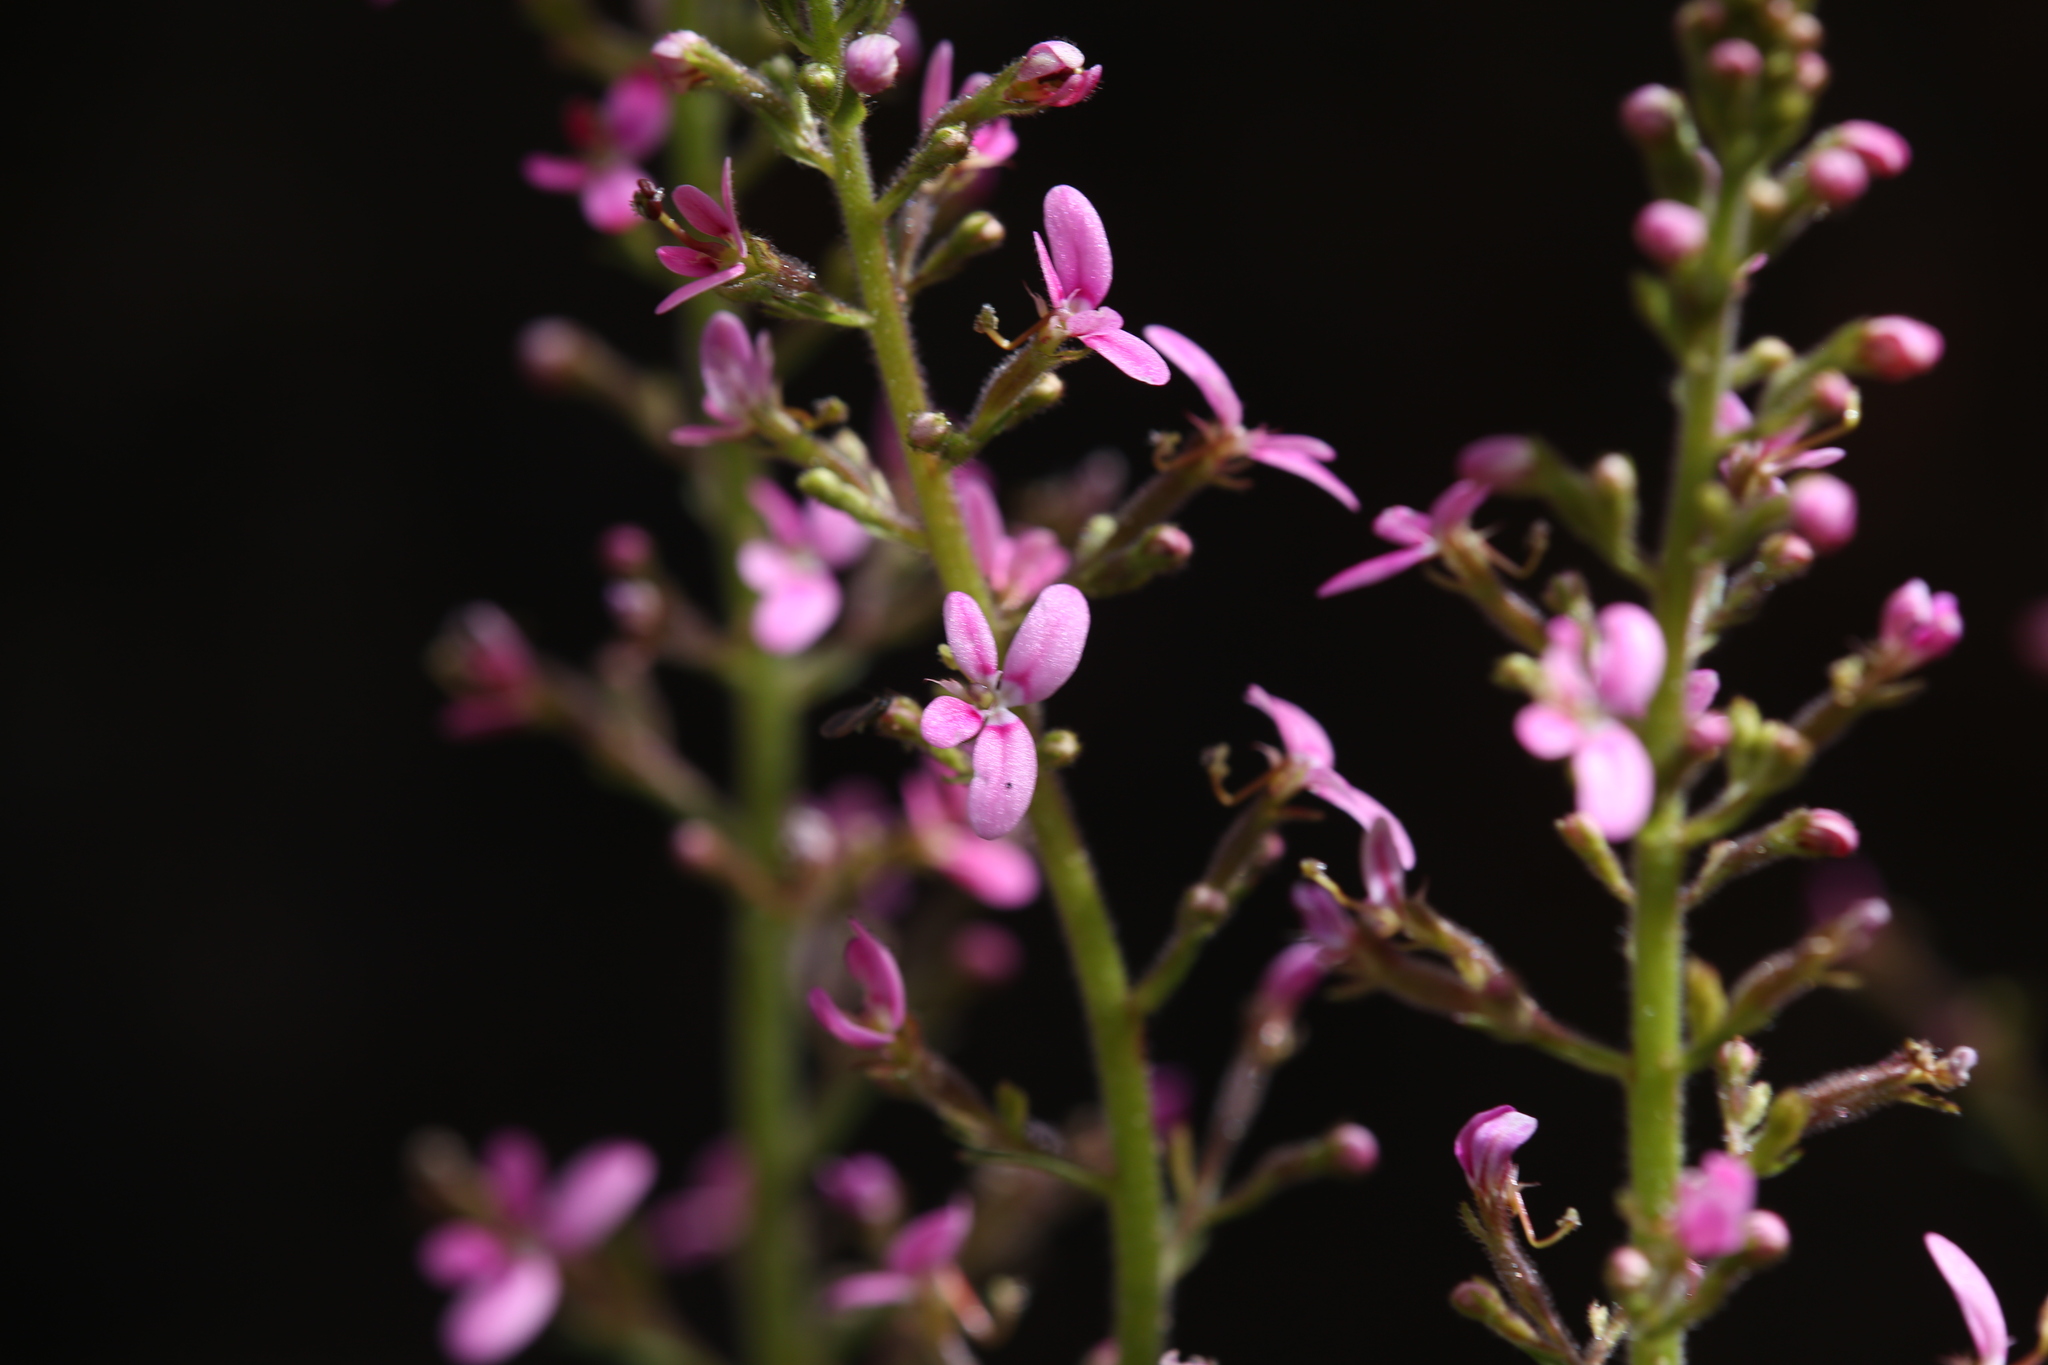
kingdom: Plantae
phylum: Tracheophyta
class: Magnoliopsida
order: Asterales
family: Stylidiaceae
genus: Stylidium
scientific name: Stylidium elongatum
